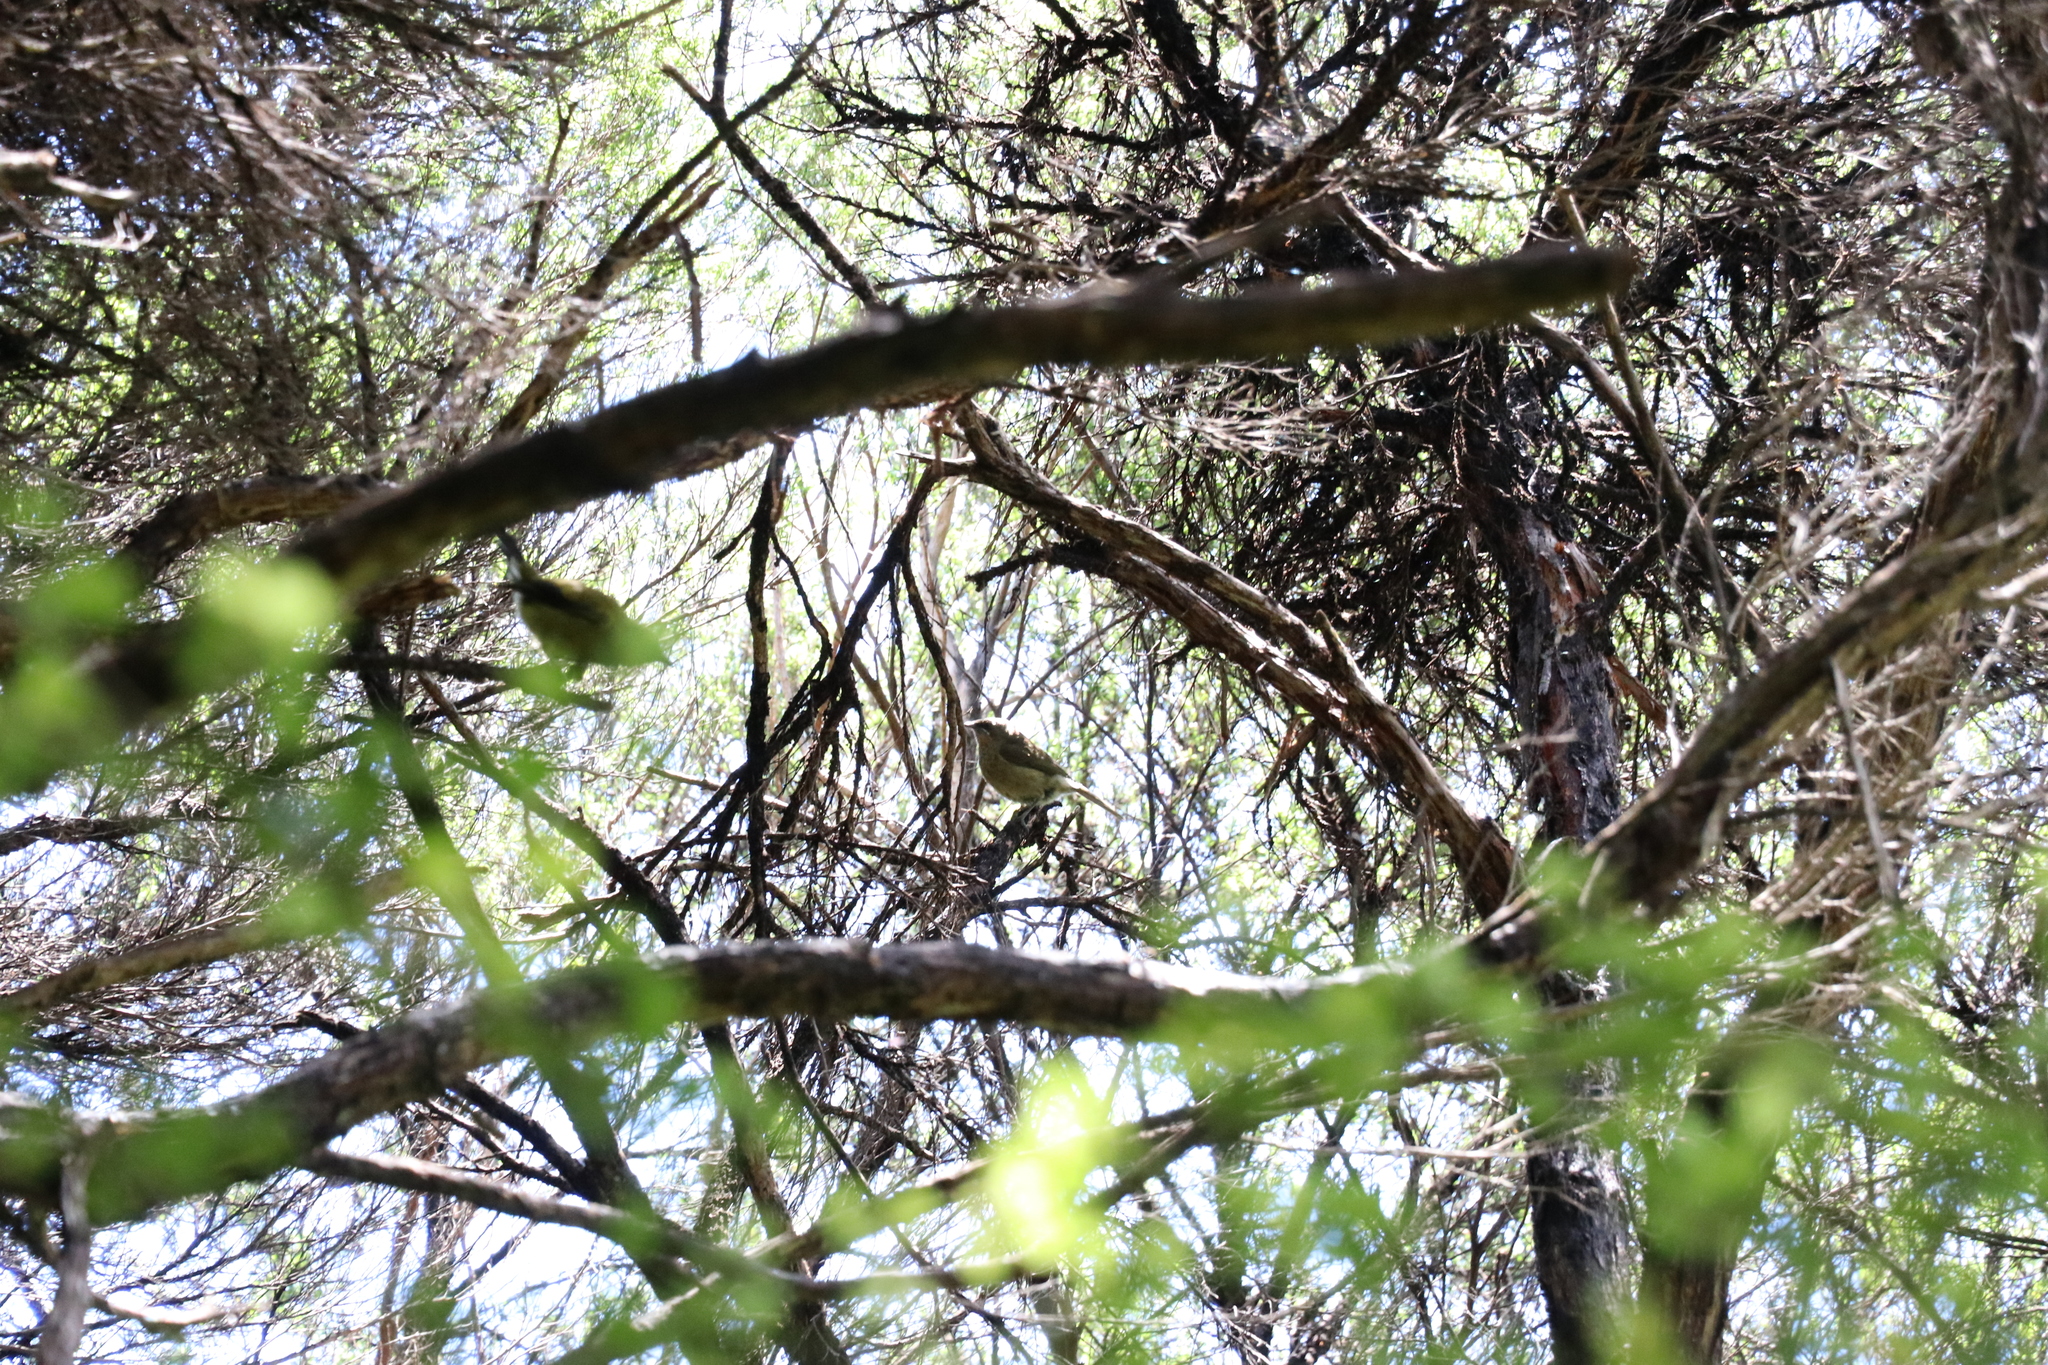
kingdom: Animalia
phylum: Chordata
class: Aves
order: Passeriformes
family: Meliphagidae
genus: Anthornis
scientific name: Anthornis melanura
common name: New zealand bellbird
